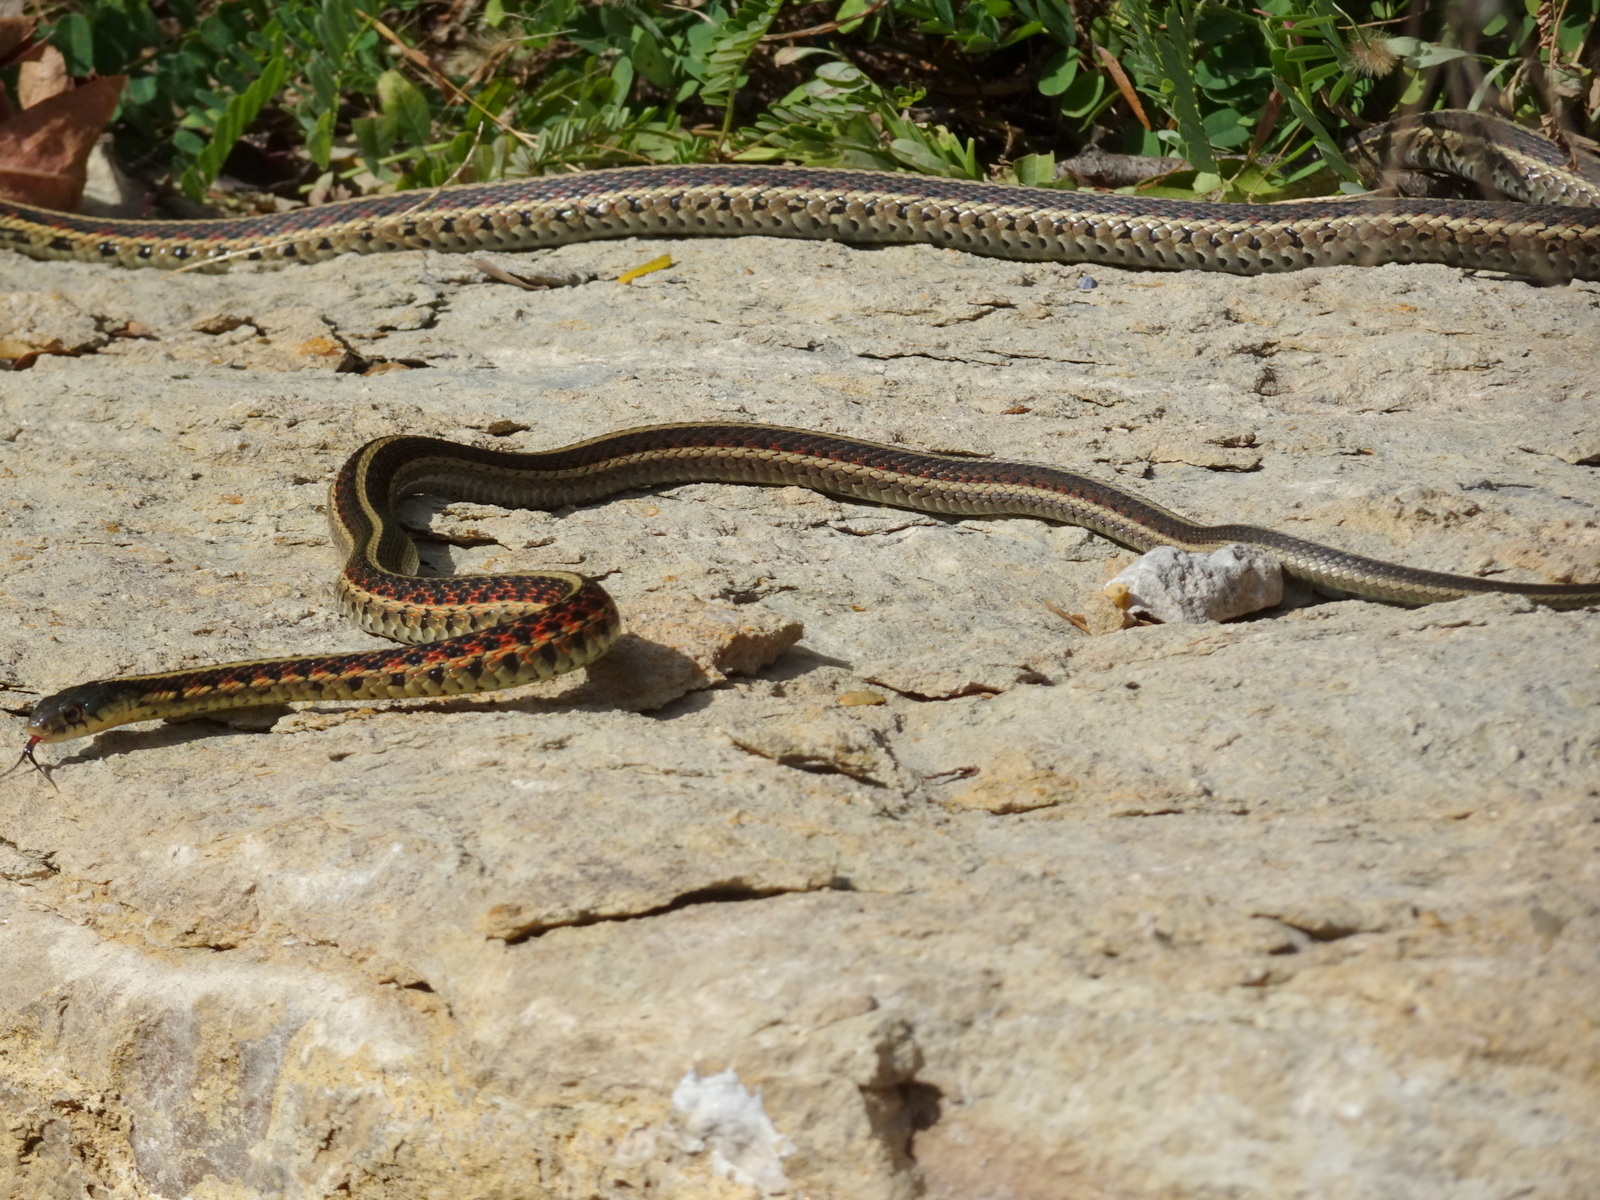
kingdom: Animalia
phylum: Chordata
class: Squamata
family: Colubridae
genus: Thamnophis
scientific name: Thamnophis sirtalis
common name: Common garter snake
